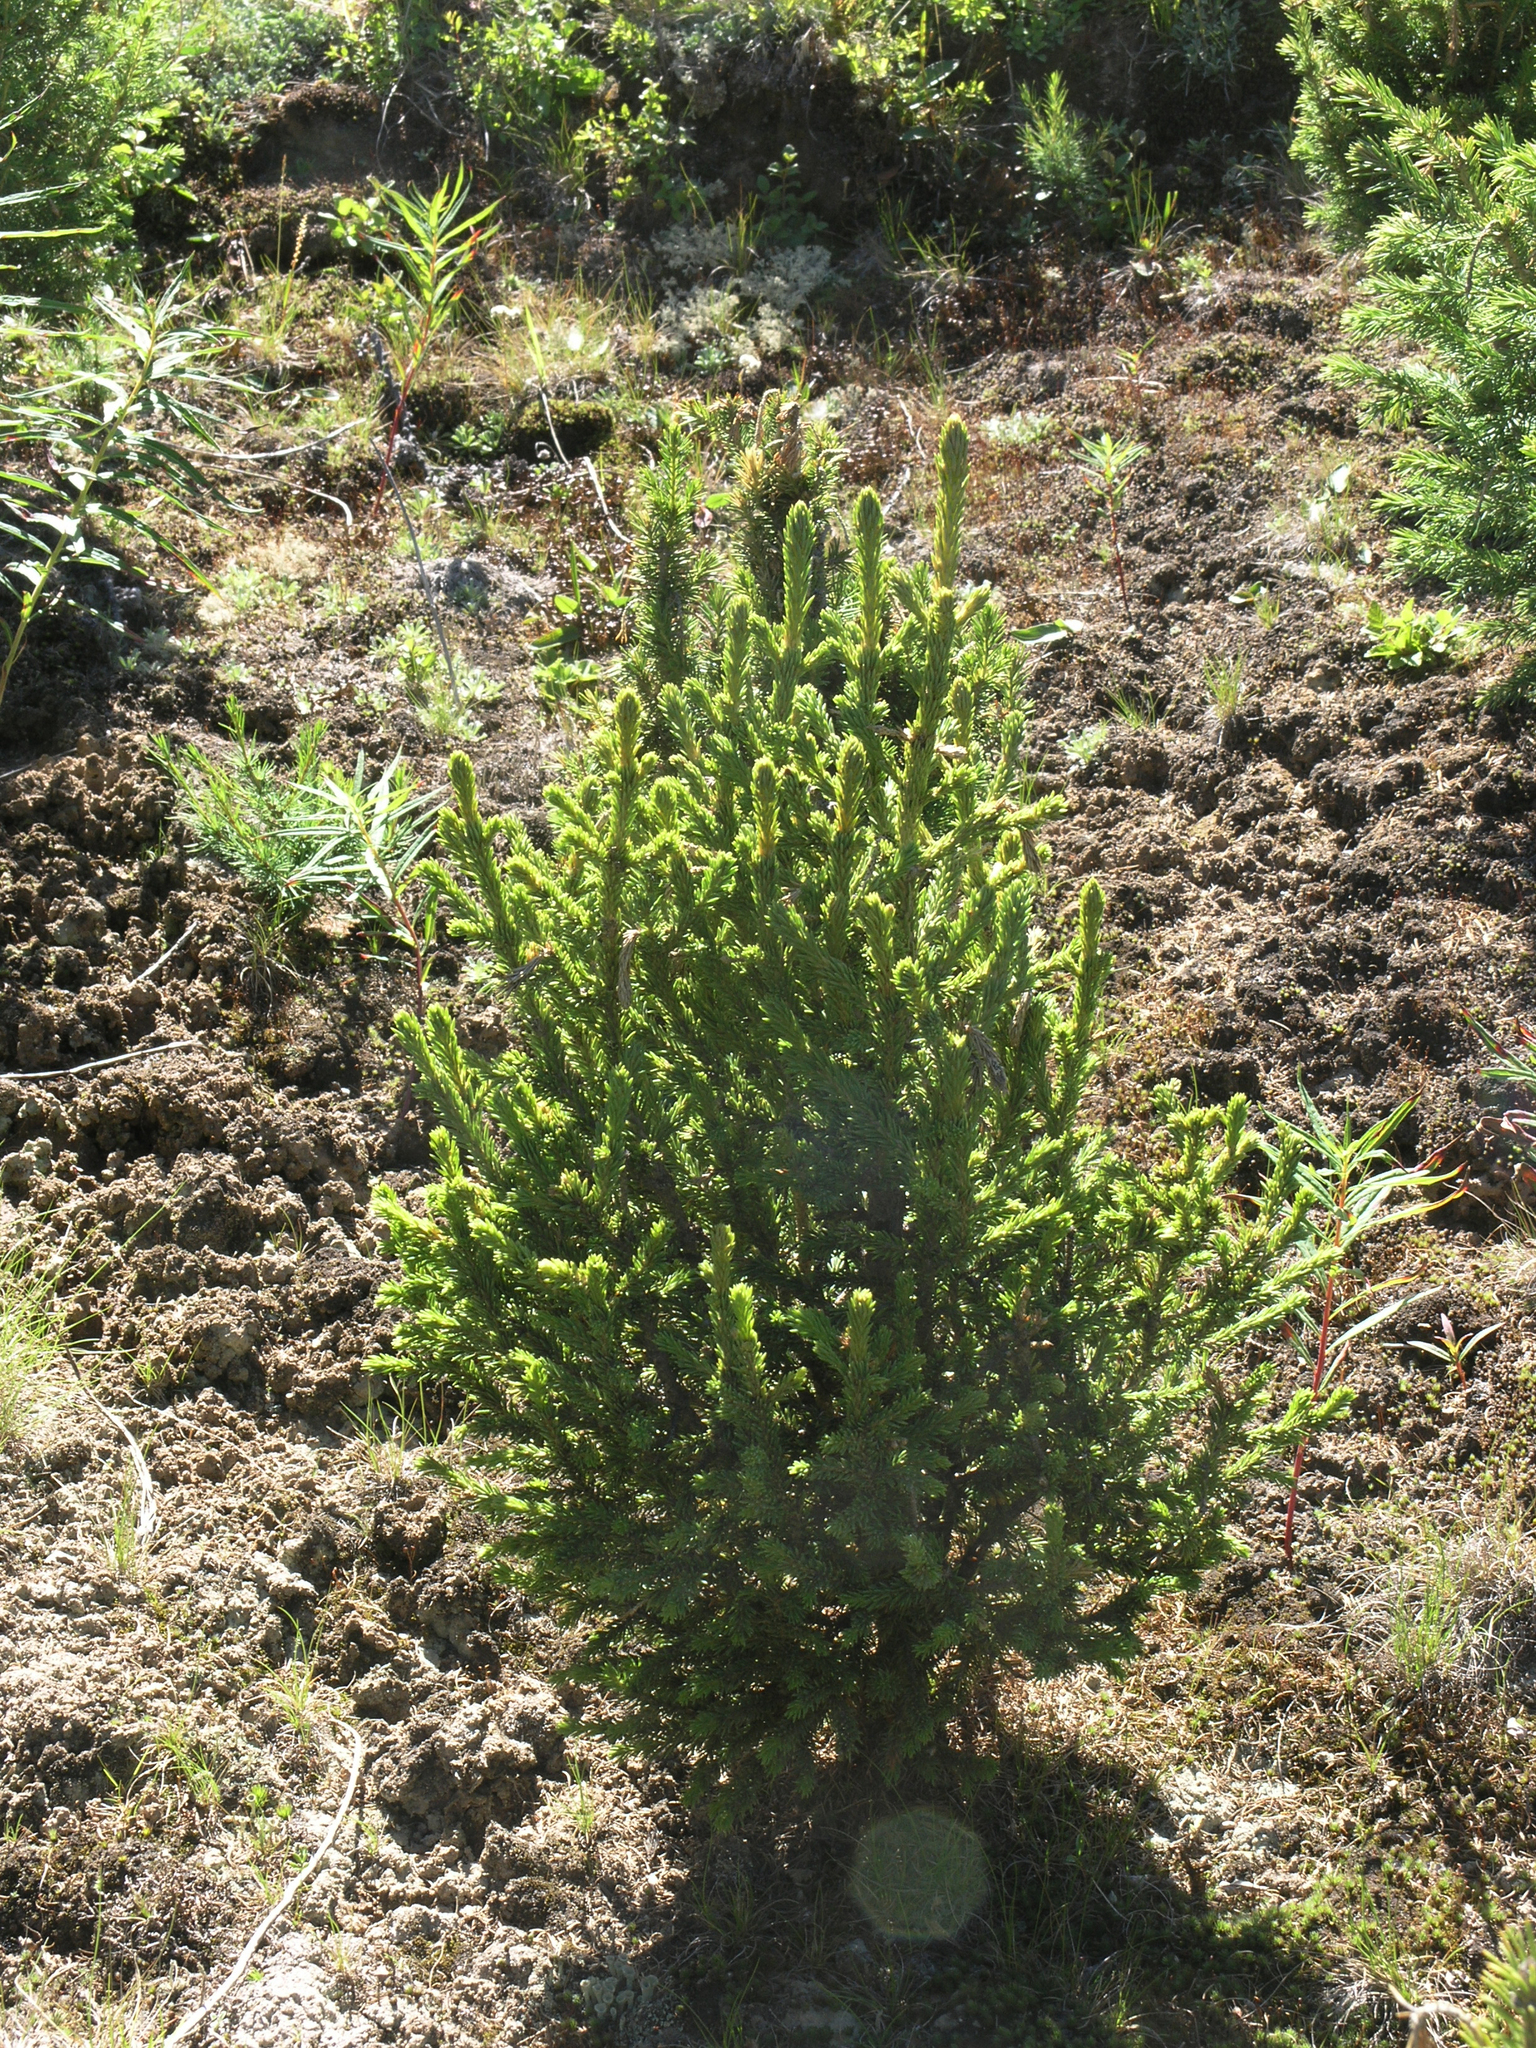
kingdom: Plantae
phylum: Tracheophyta
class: Pinopsida
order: Pinales
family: Pinaceae
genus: Picea
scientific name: Picea obovata
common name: Siberian spruce
